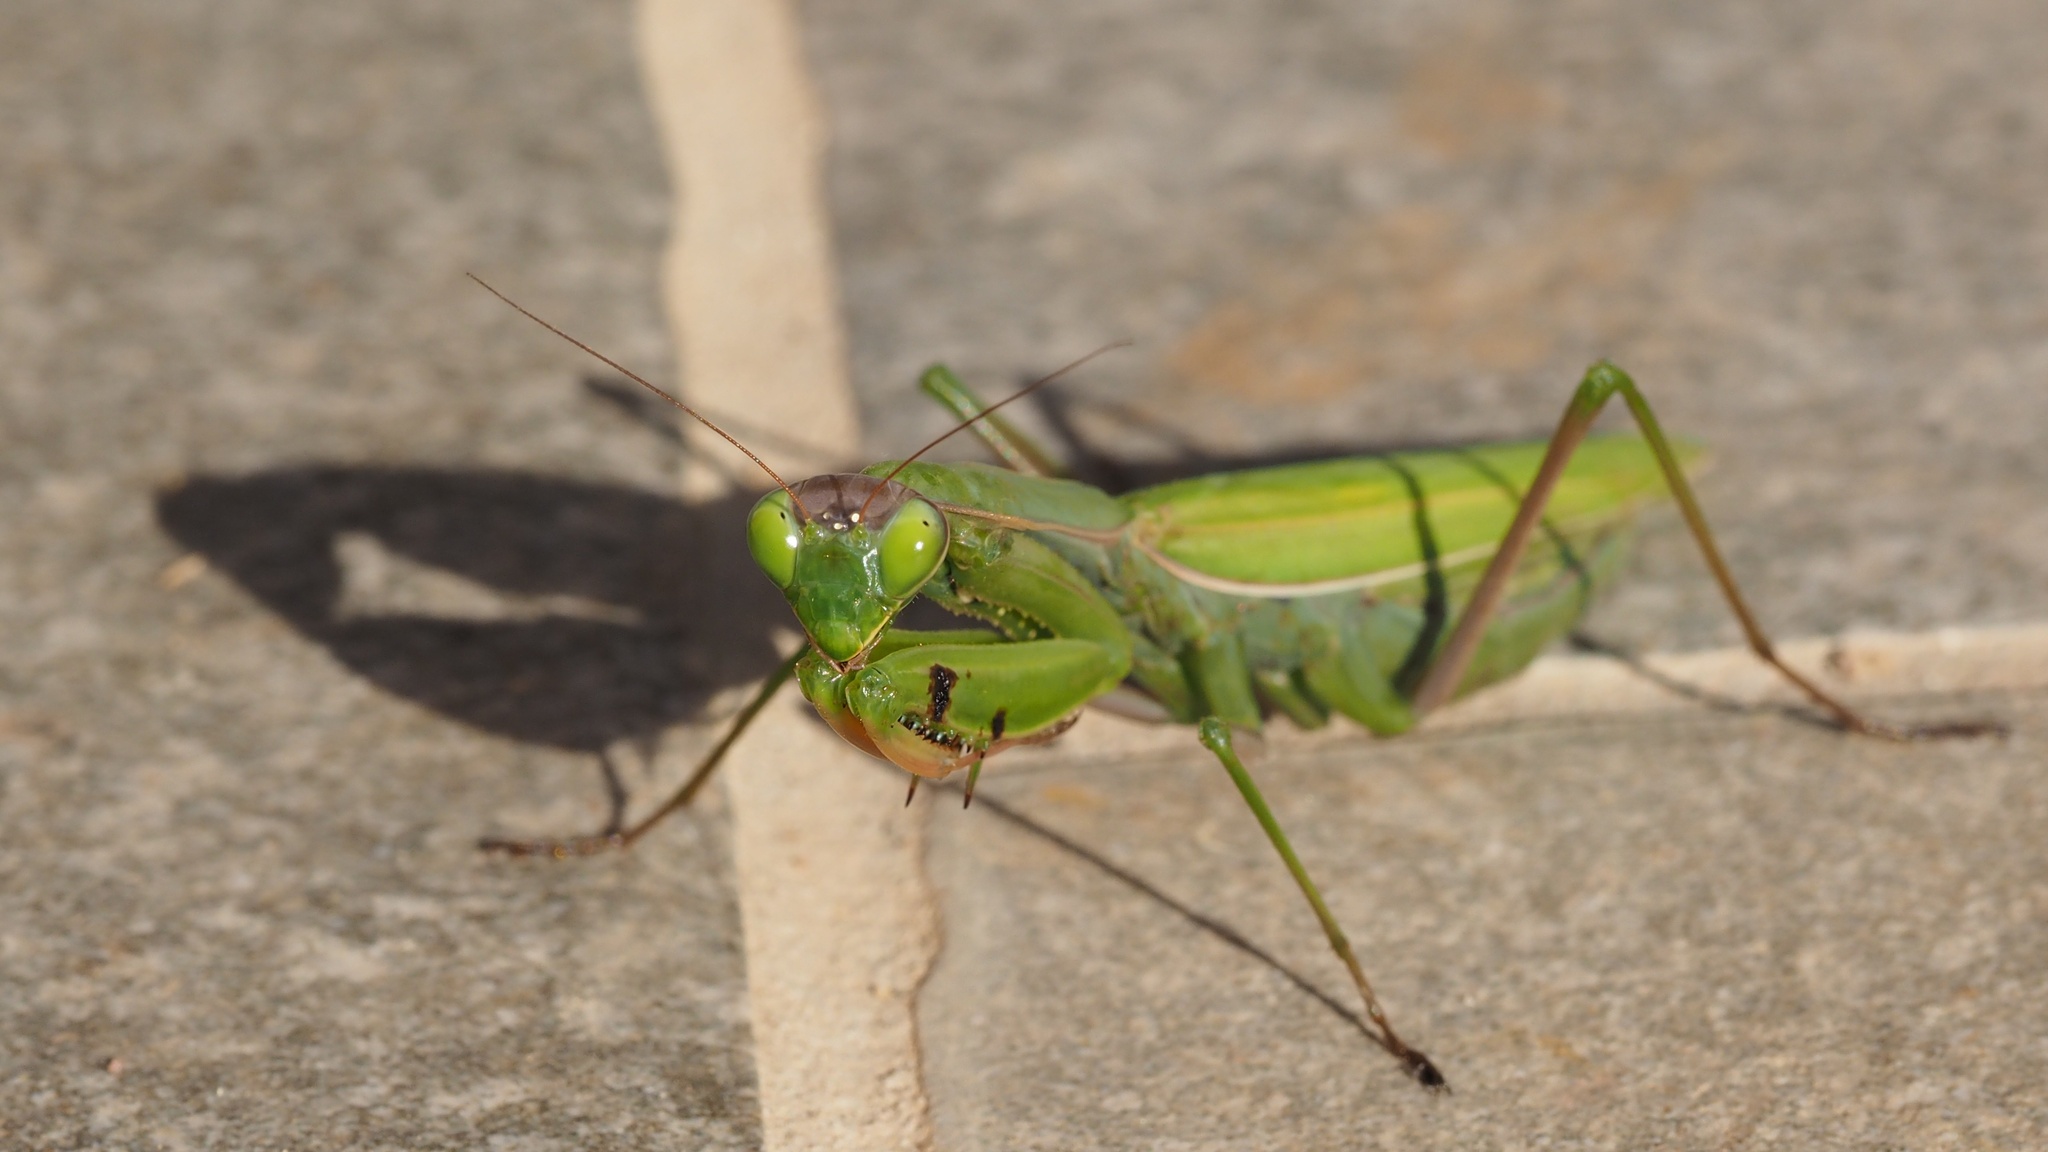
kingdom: Animalia
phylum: Arthropoda
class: Insecta
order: Mantodea
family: Mantidae
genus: Mantis
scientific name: Mantis religiosa
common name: Praying mantis
